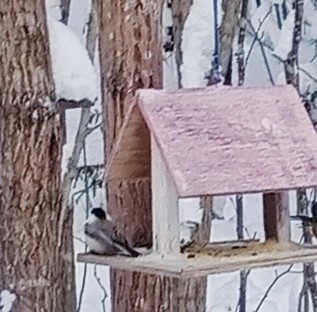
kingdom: Animalia
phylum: Chordata
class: Aves
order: Passeriformes
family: Paridae
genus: Poecile
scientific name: Poecile montanus
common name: Willow tit
